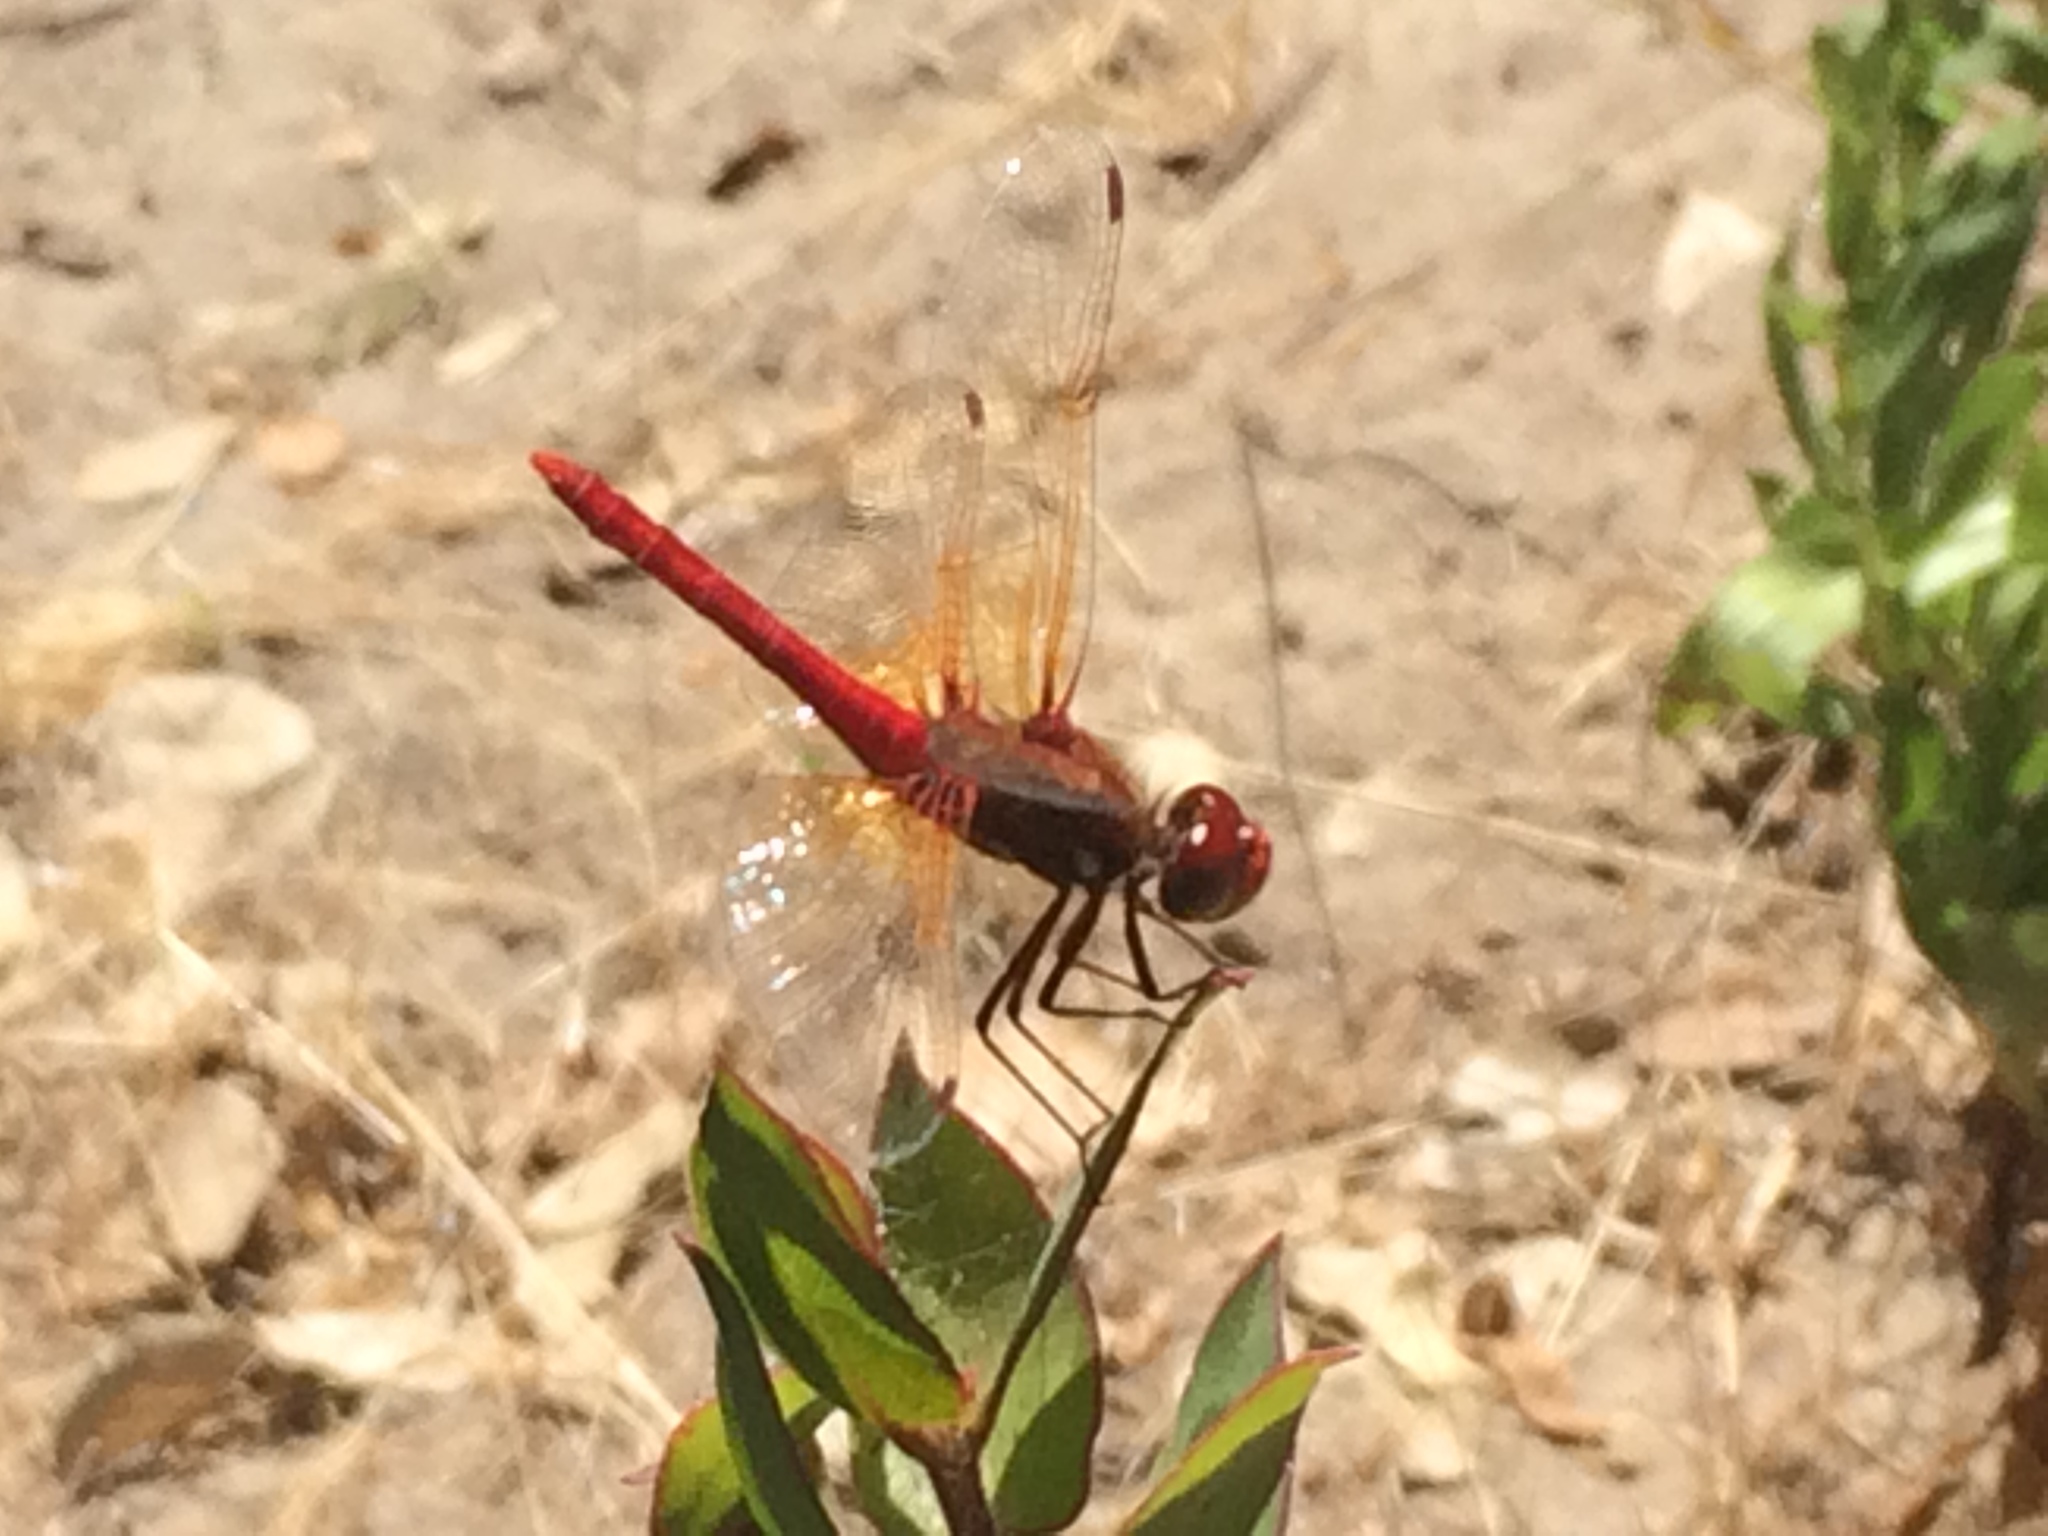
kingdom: Animalia
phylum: Arthropoda
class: Insecta
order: Odonata
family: Libellulidae
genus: Sympetrum
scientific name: Sympetrum illotum
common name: Cardinal meadowhawk
